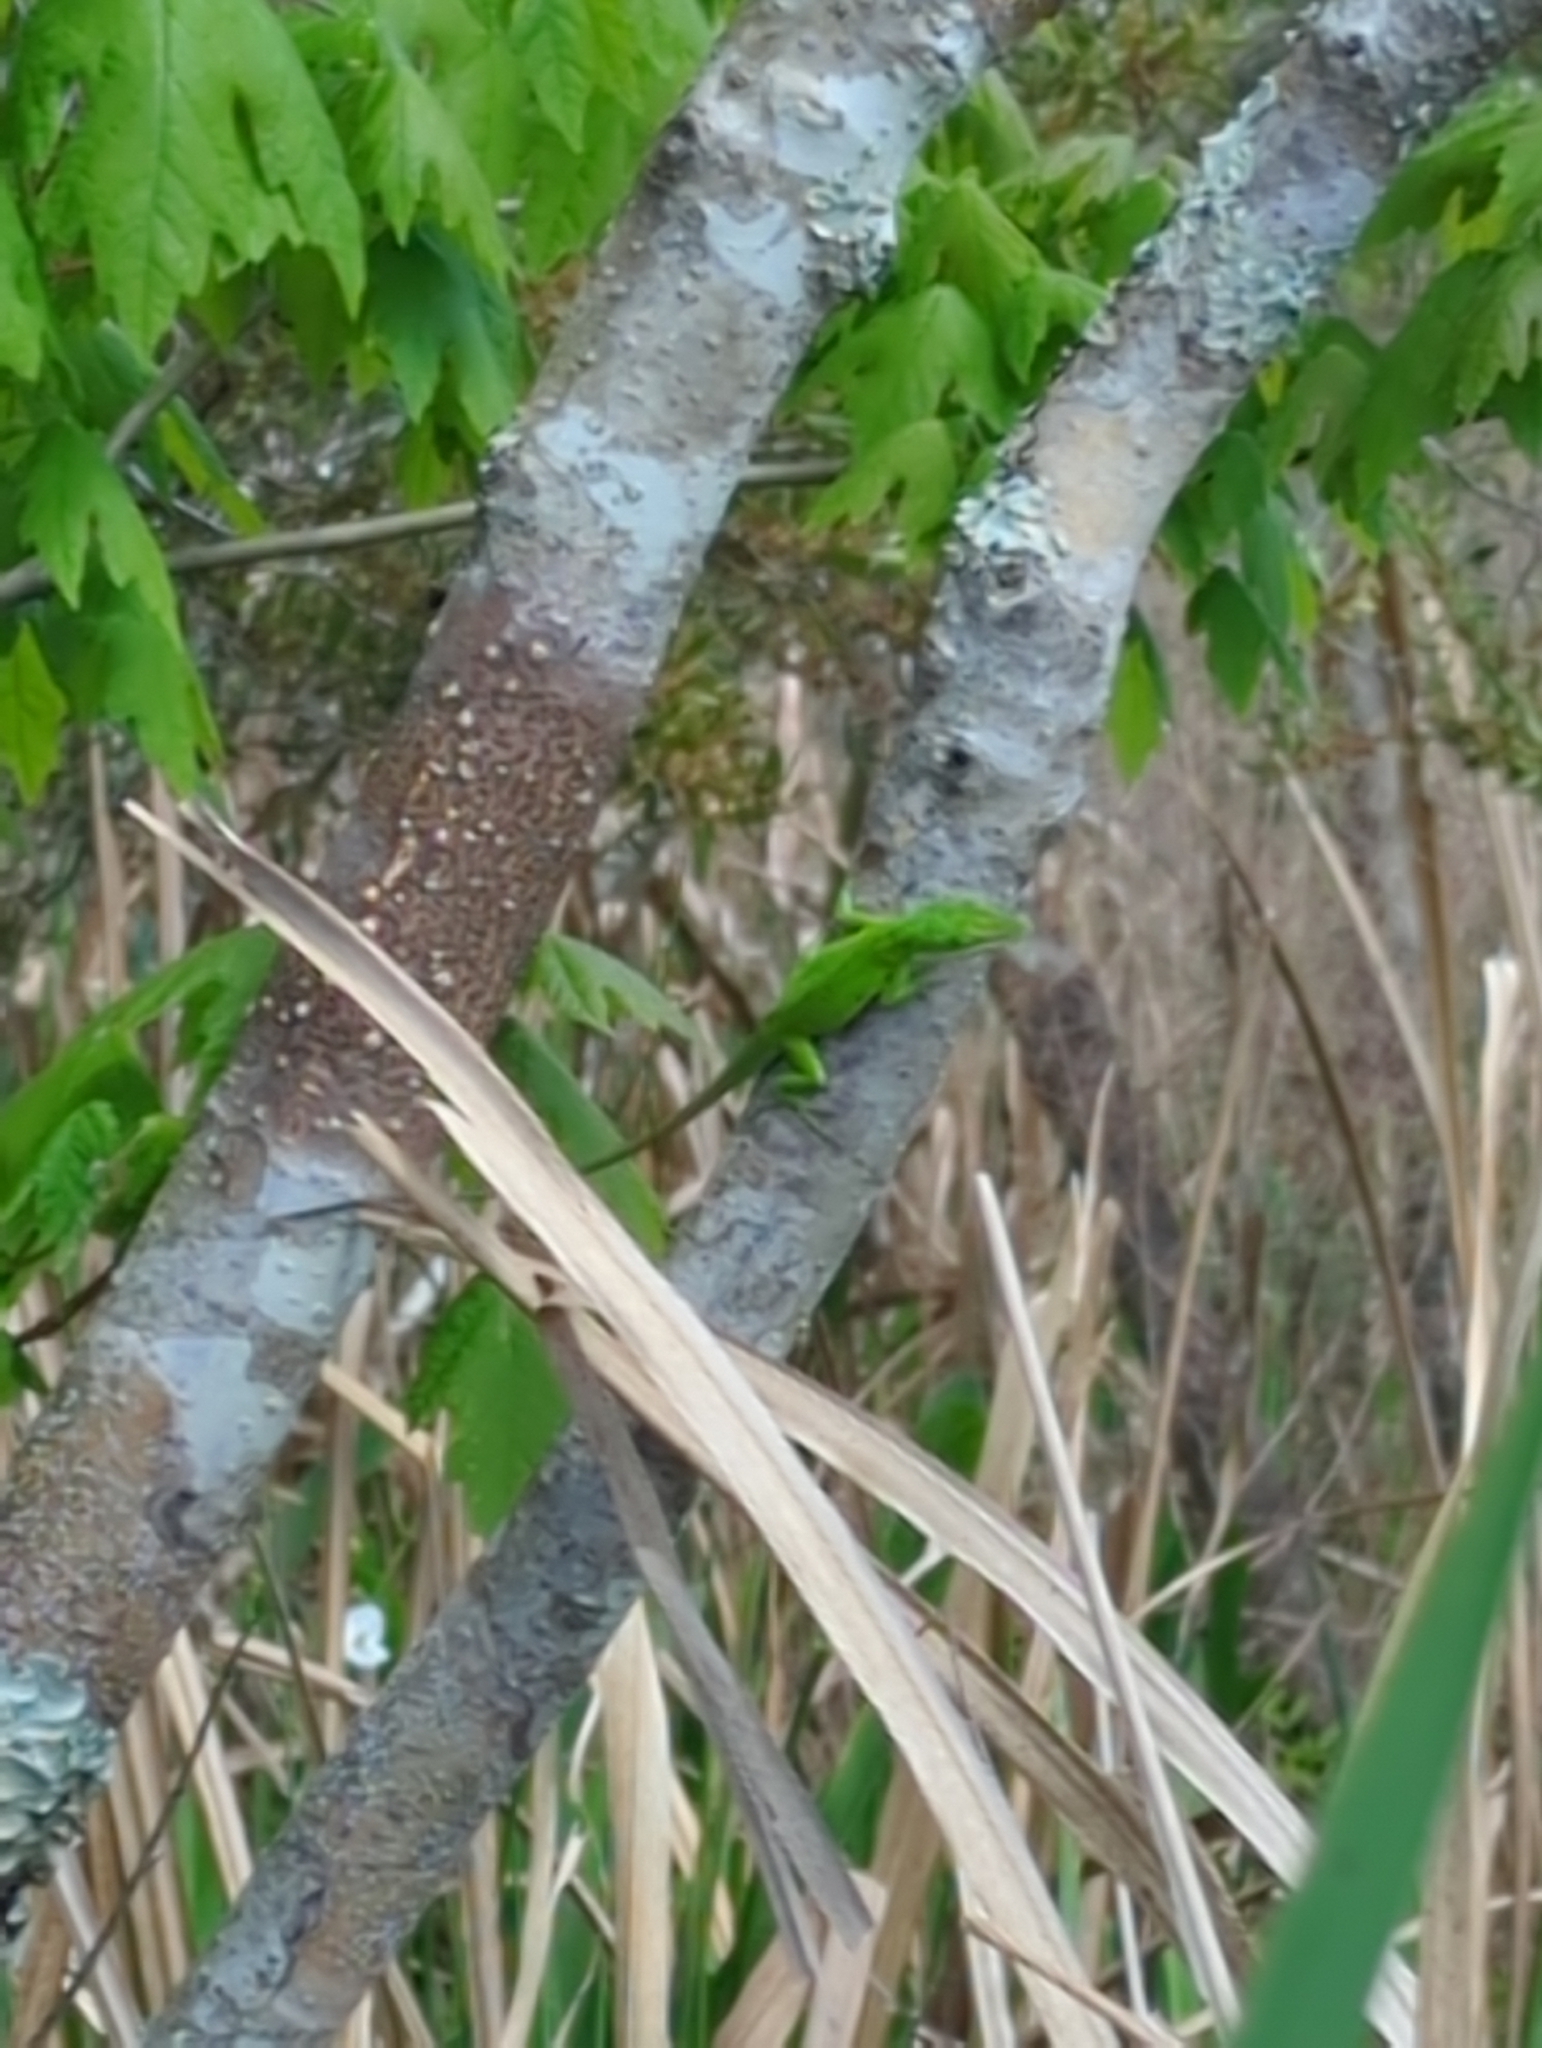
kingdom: Animalia
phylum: Chordata
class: Squamata
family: Dactyloidae
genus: Anolis
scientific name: Anolis carolinensis
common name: Green anole
